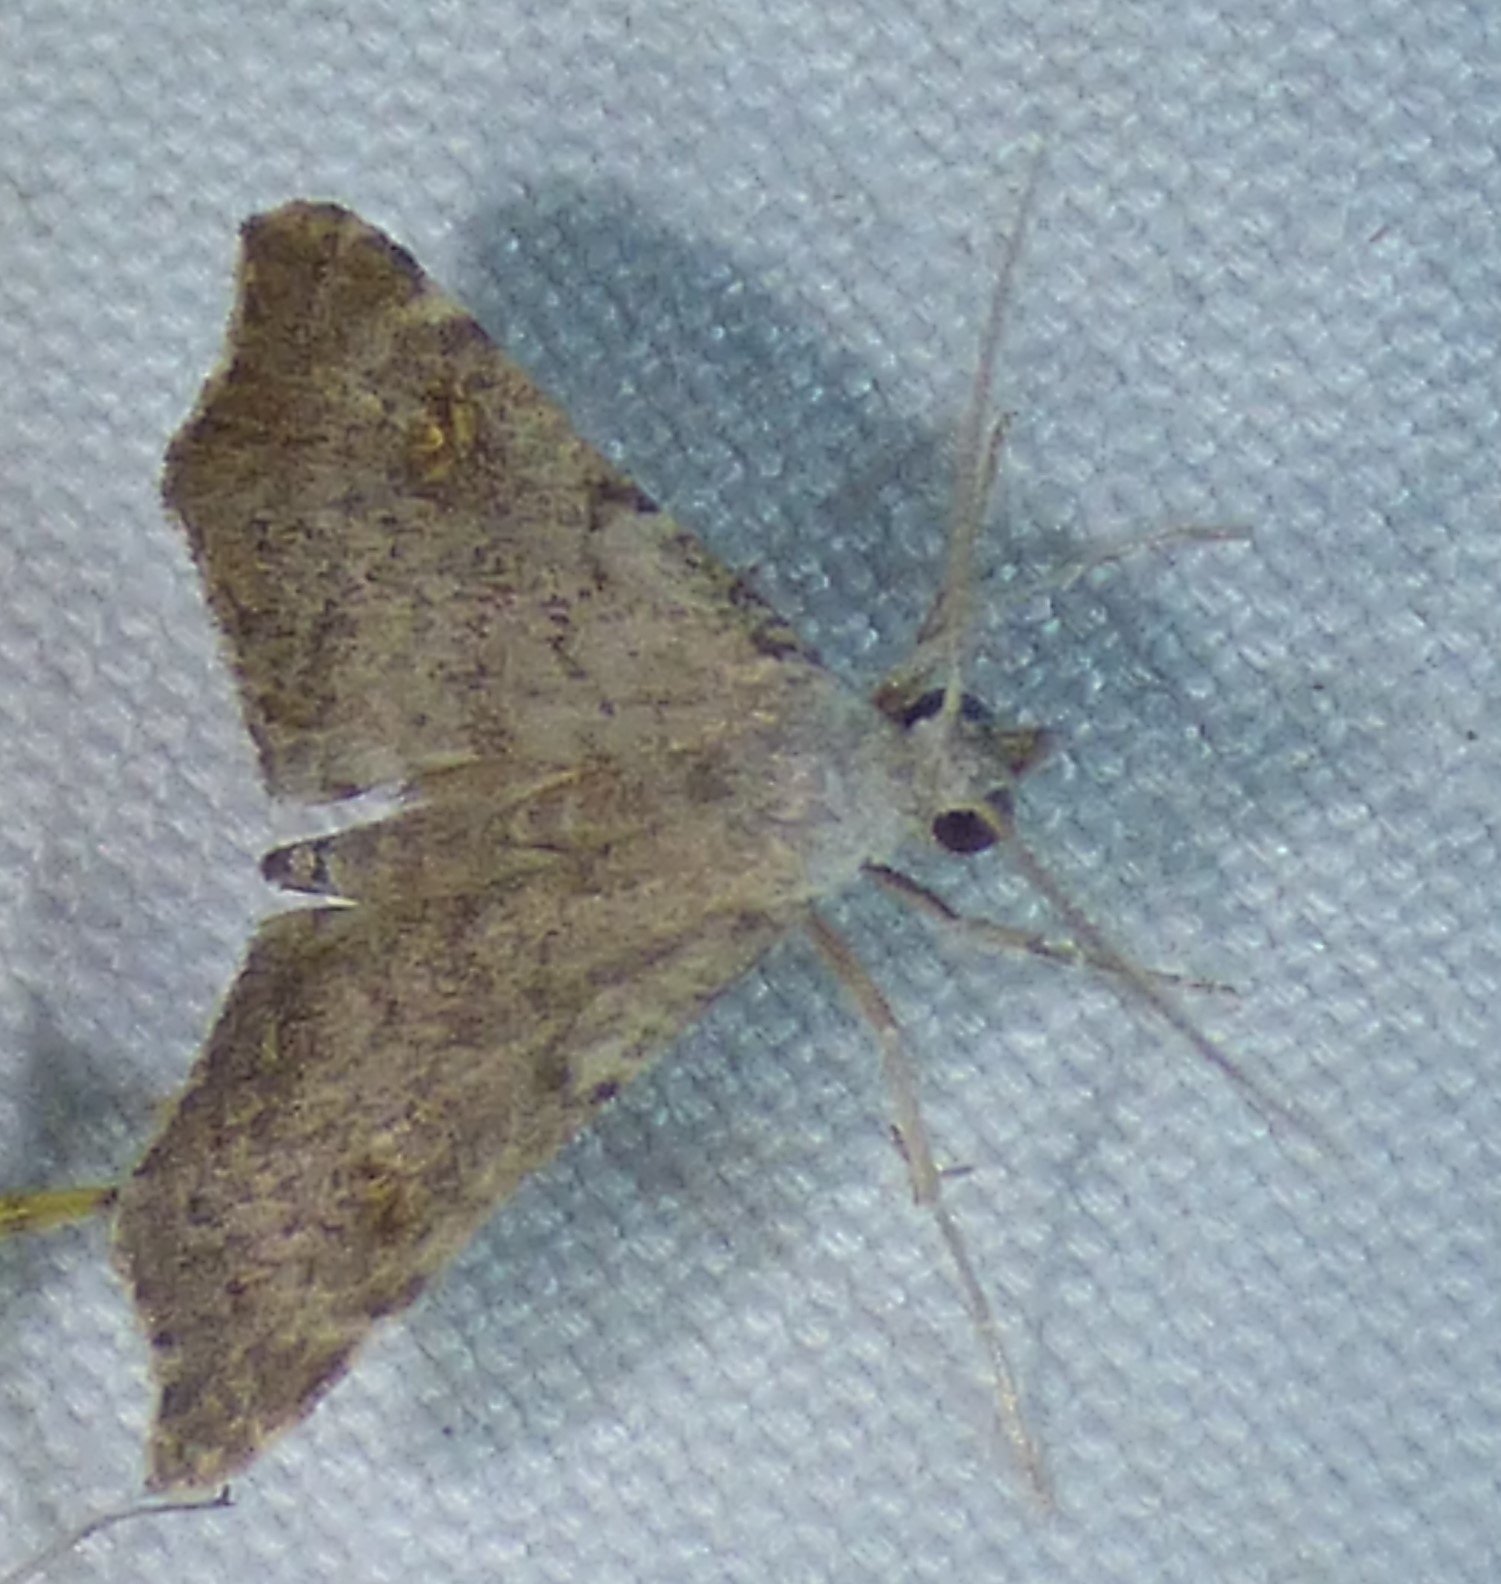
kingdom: Animalia
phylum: Arthropoda
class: Insecta
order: Lepidoptera
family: Erebidae
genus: Redectis
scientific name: Redectis pygmaea
